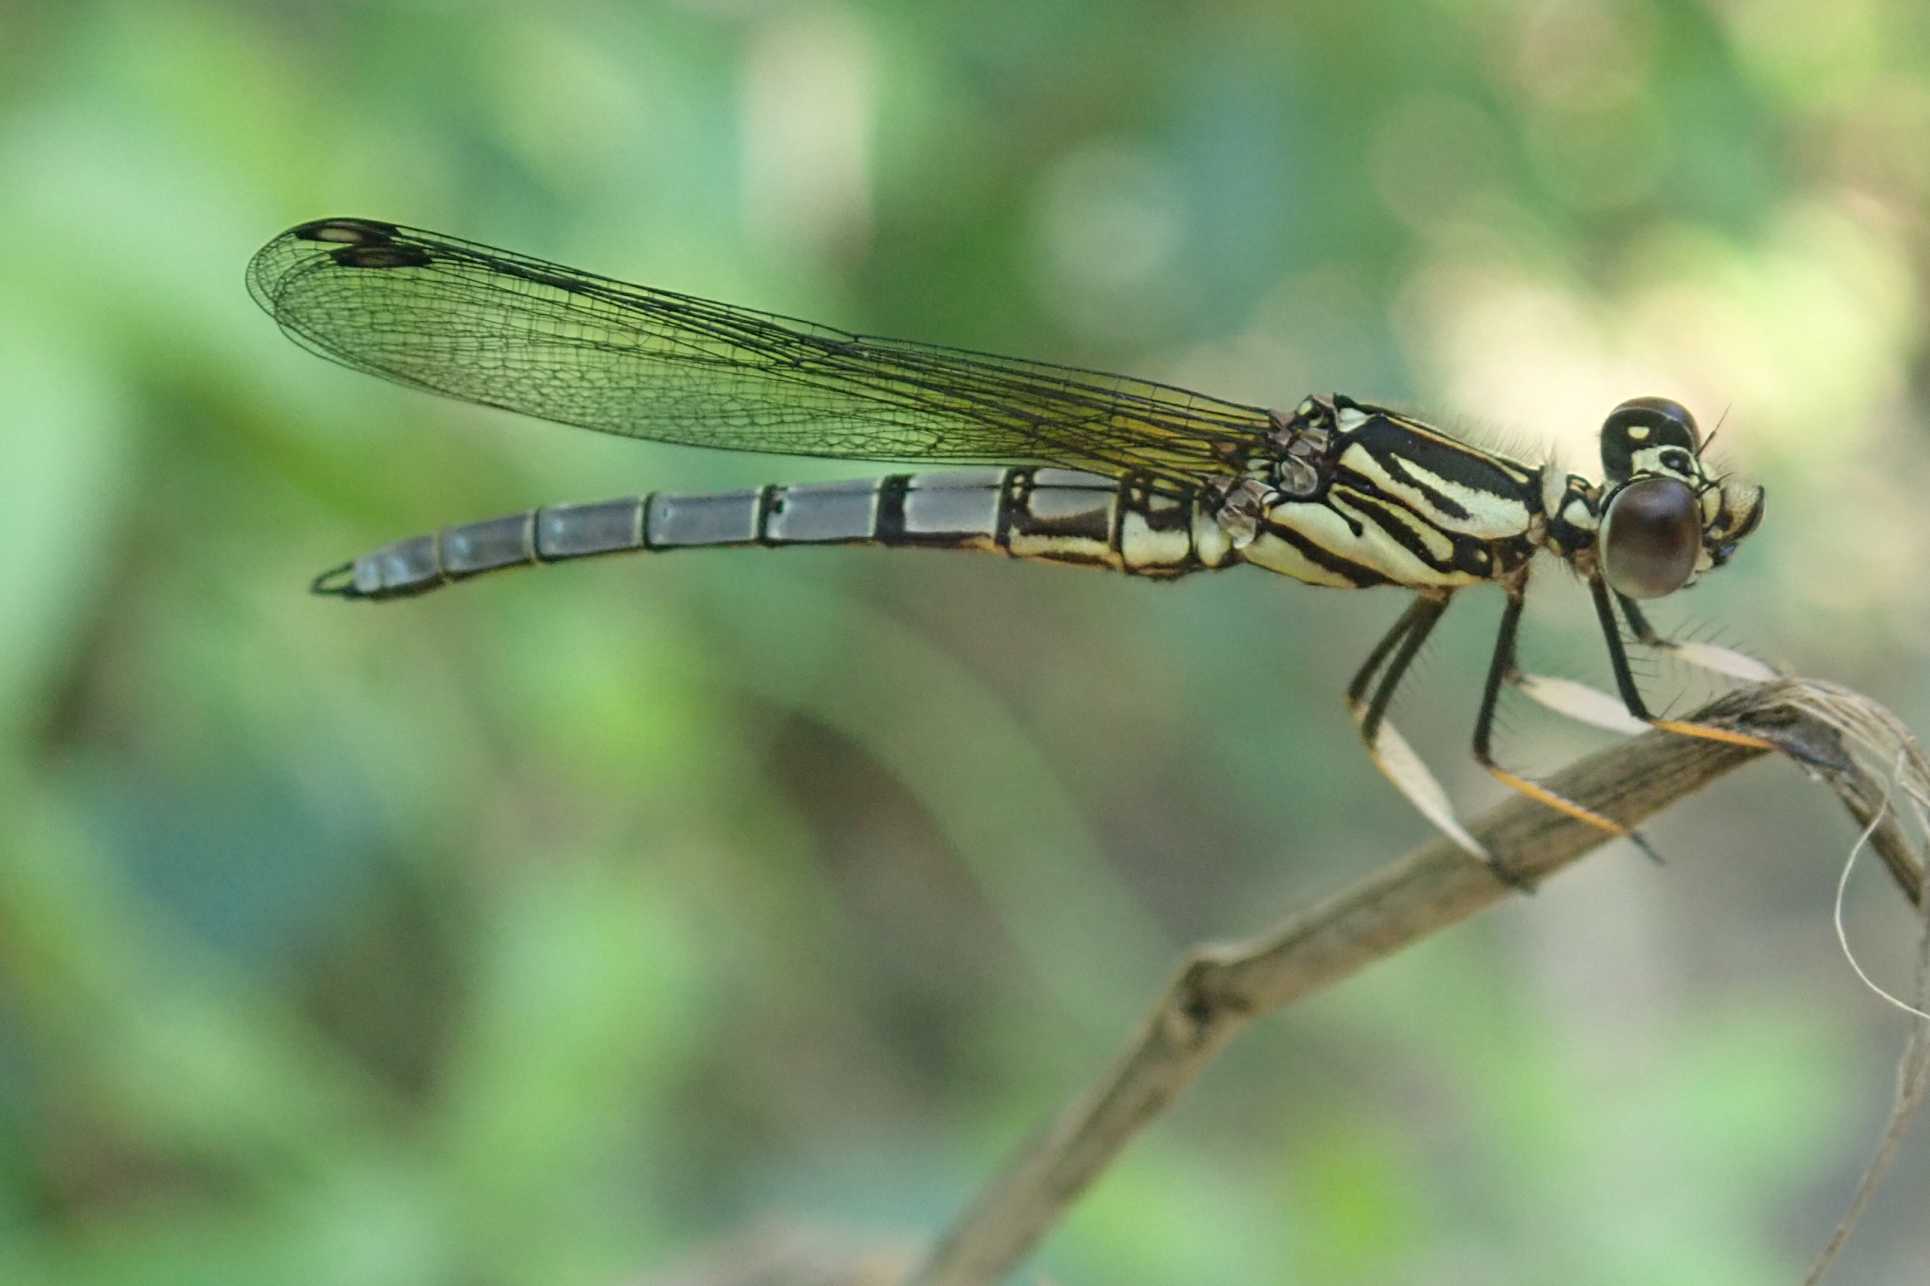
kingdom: Animalia
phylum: Arthropoda
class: Insecta
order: Odonata
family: Chlorocyphidae
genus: Platycypha
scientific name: Platycypha caligata
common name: Dancing jewel
